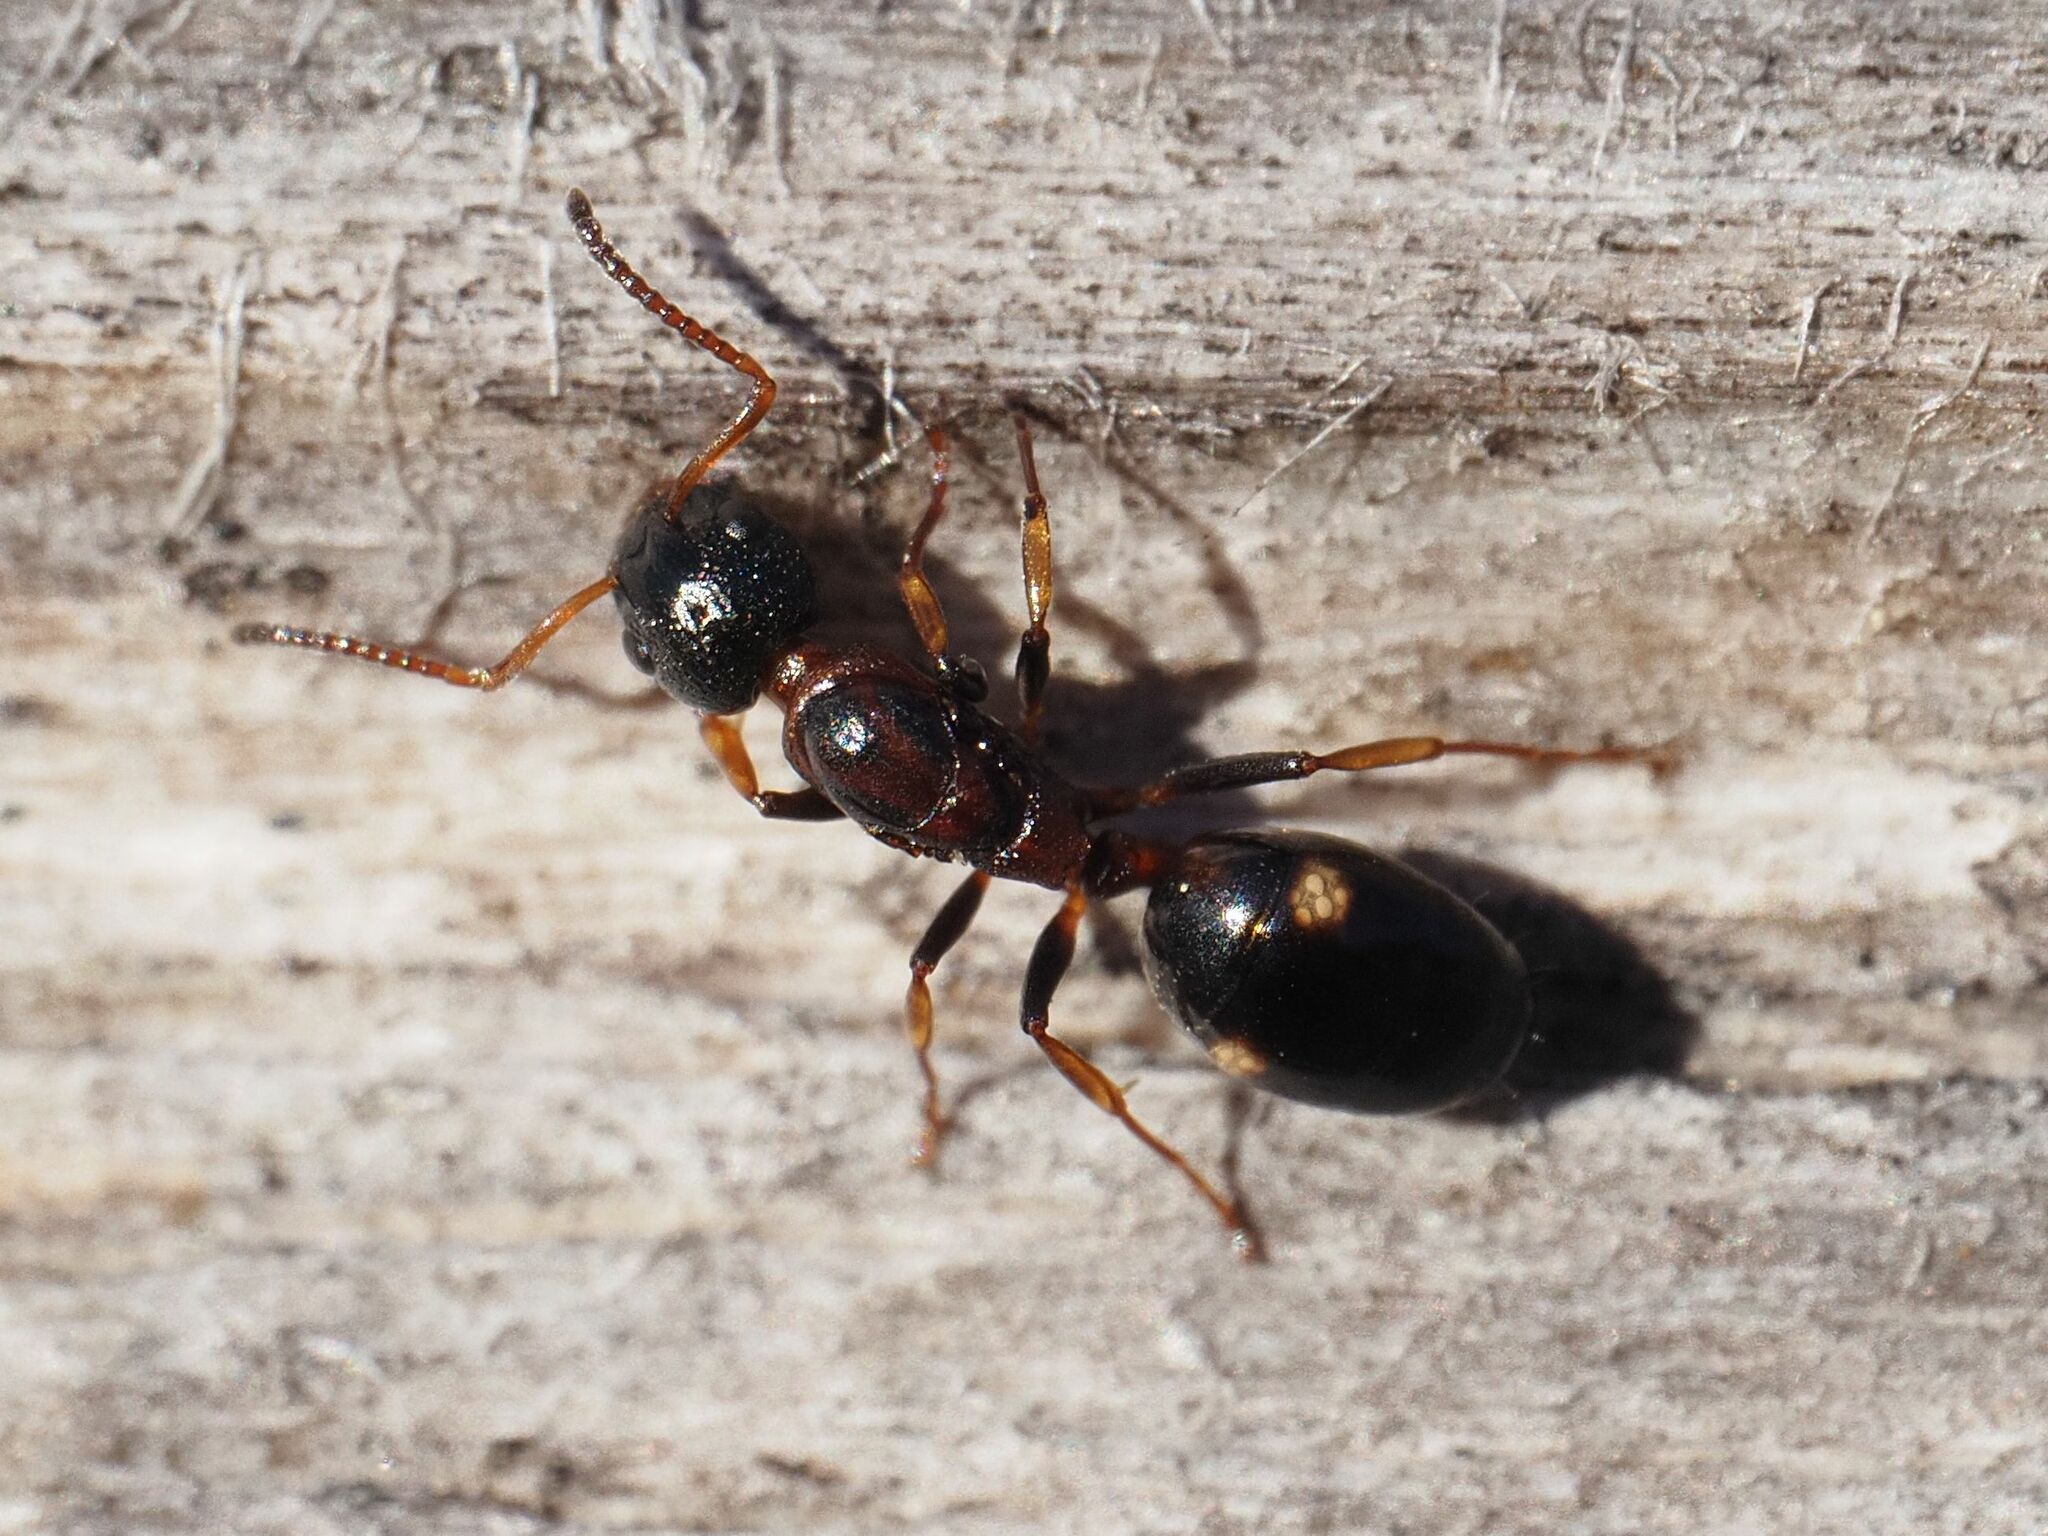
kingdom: Animalia
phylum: Arthropoda
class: Insecta
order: Hymenoptera
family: Formicidae
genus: Dolichoderus
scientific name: Dolichoderus quadripunctatus
